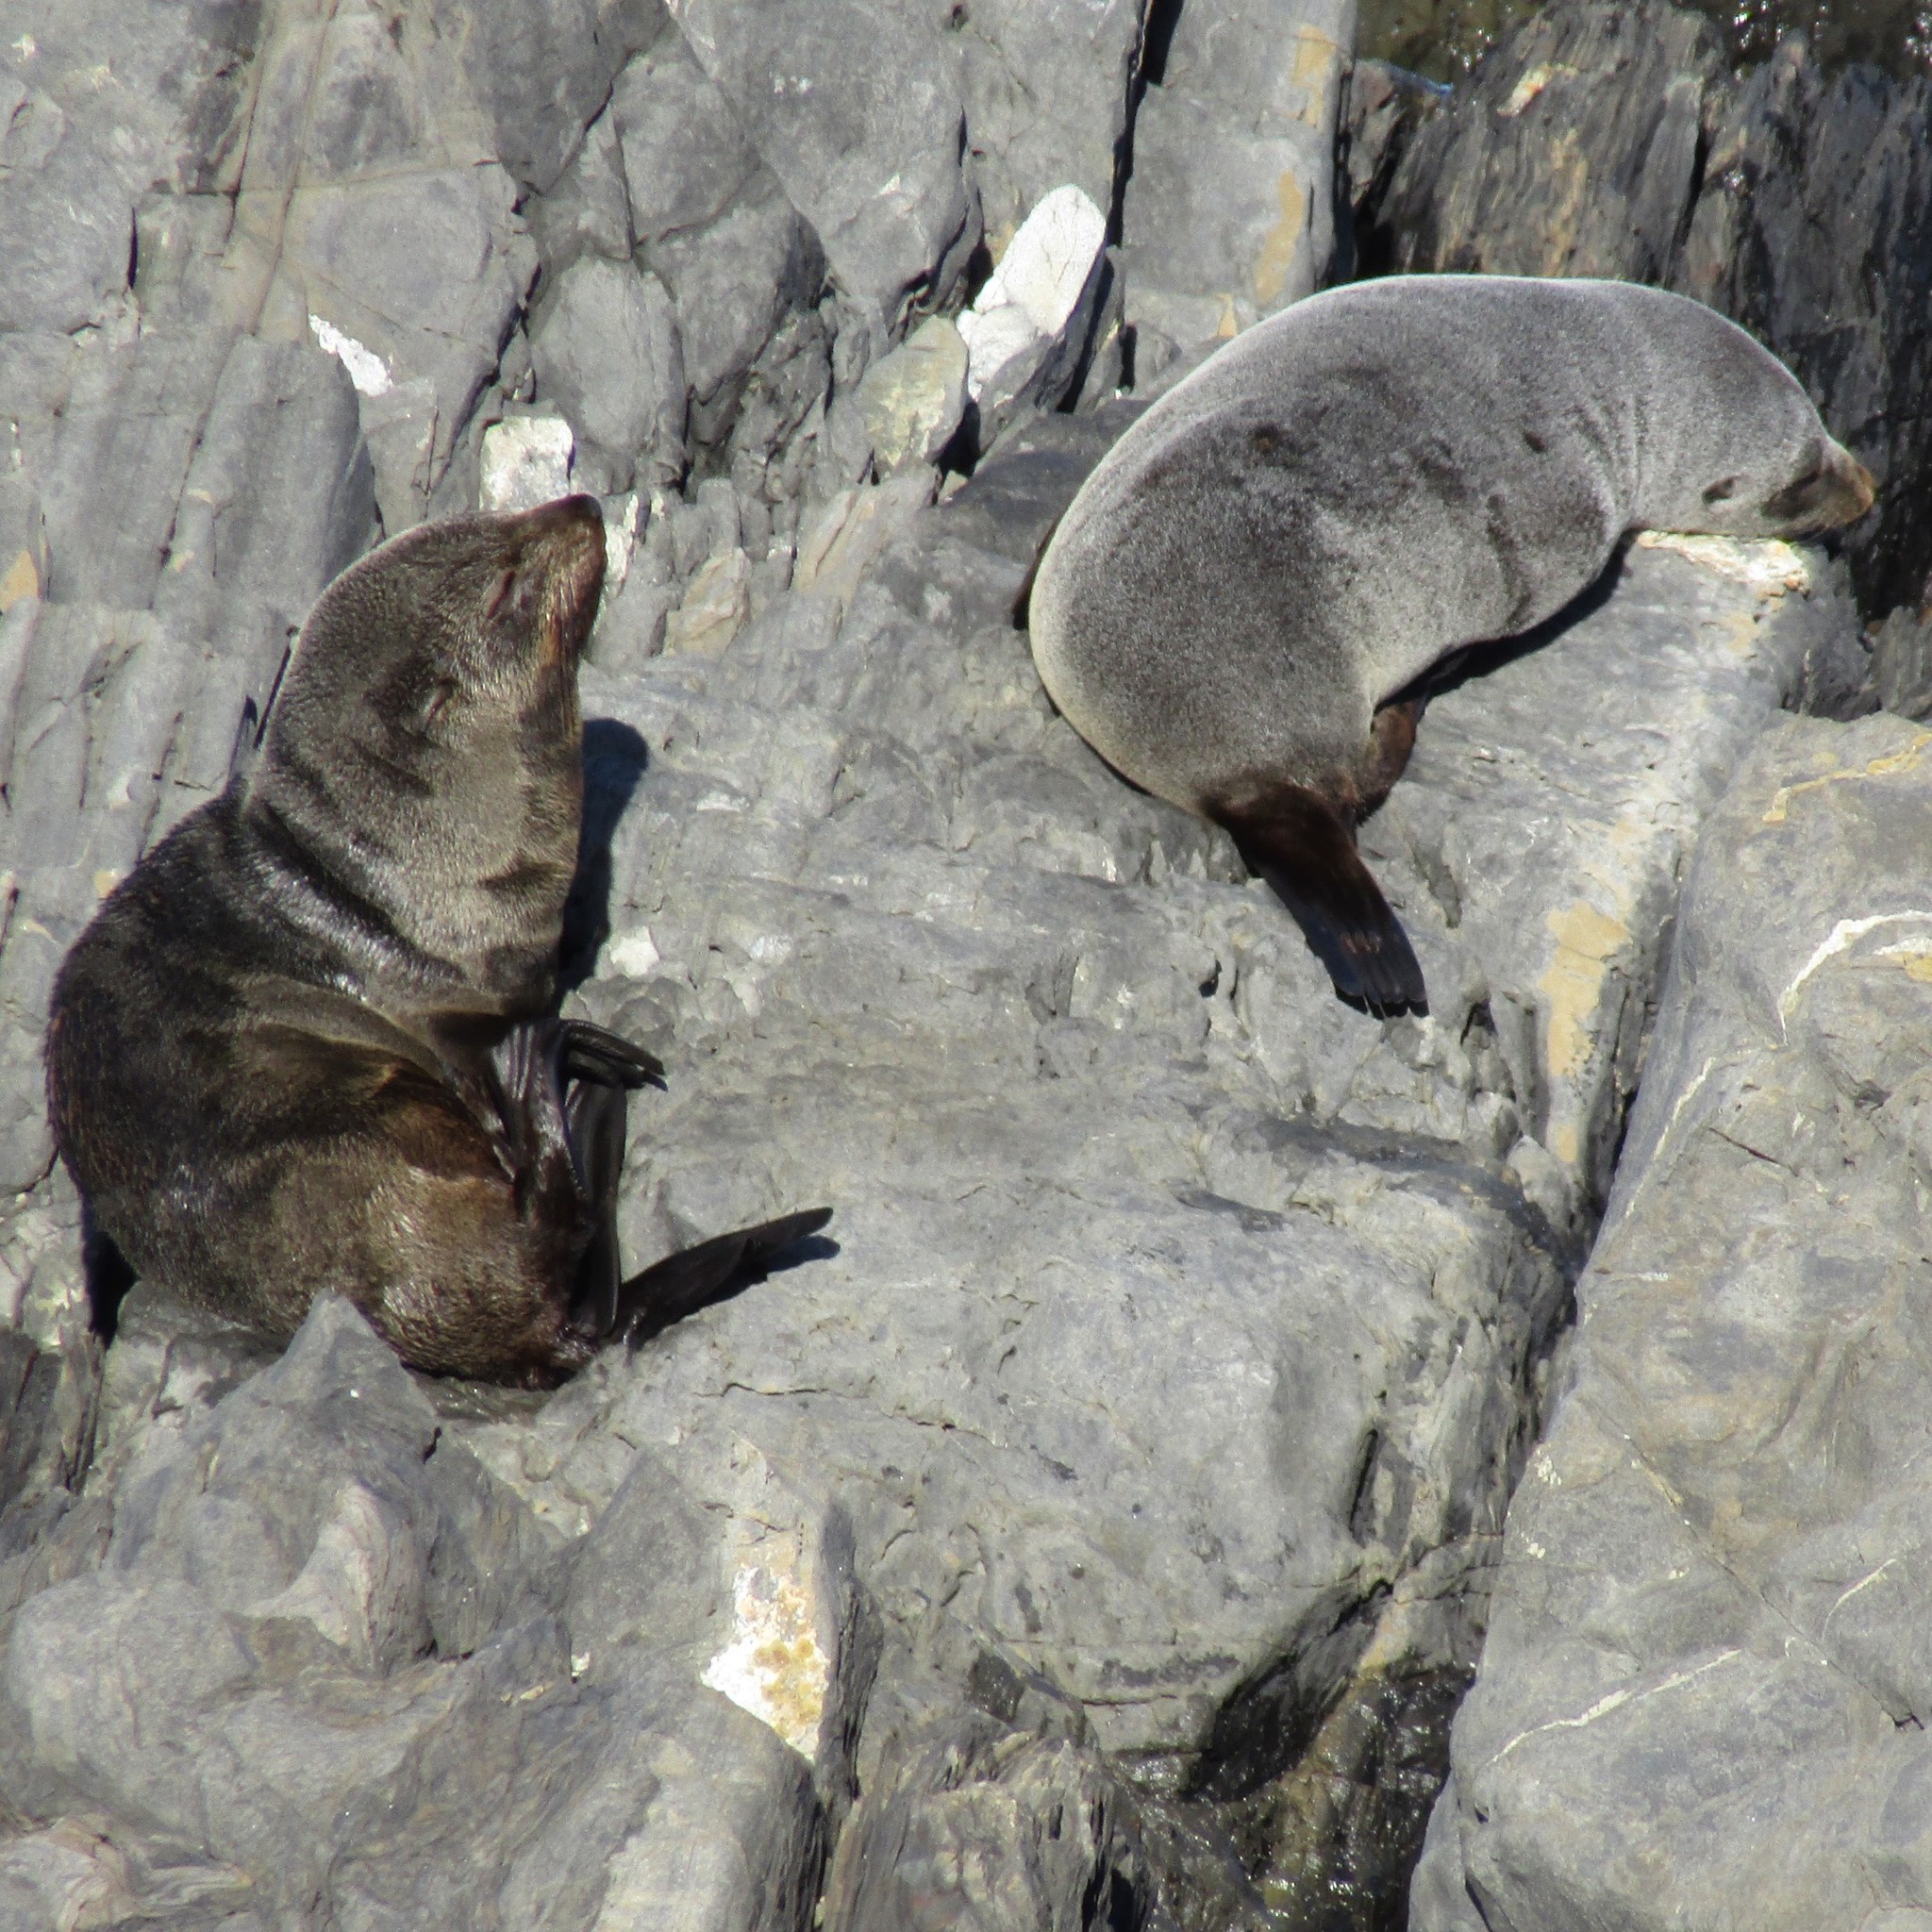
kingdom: Animalia
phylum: Chordata
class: Mammalia
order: Carnivora
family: Otariidae
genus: Arctocephalus
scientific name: Arctocephalus forsteri
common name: New zealand fur seal
